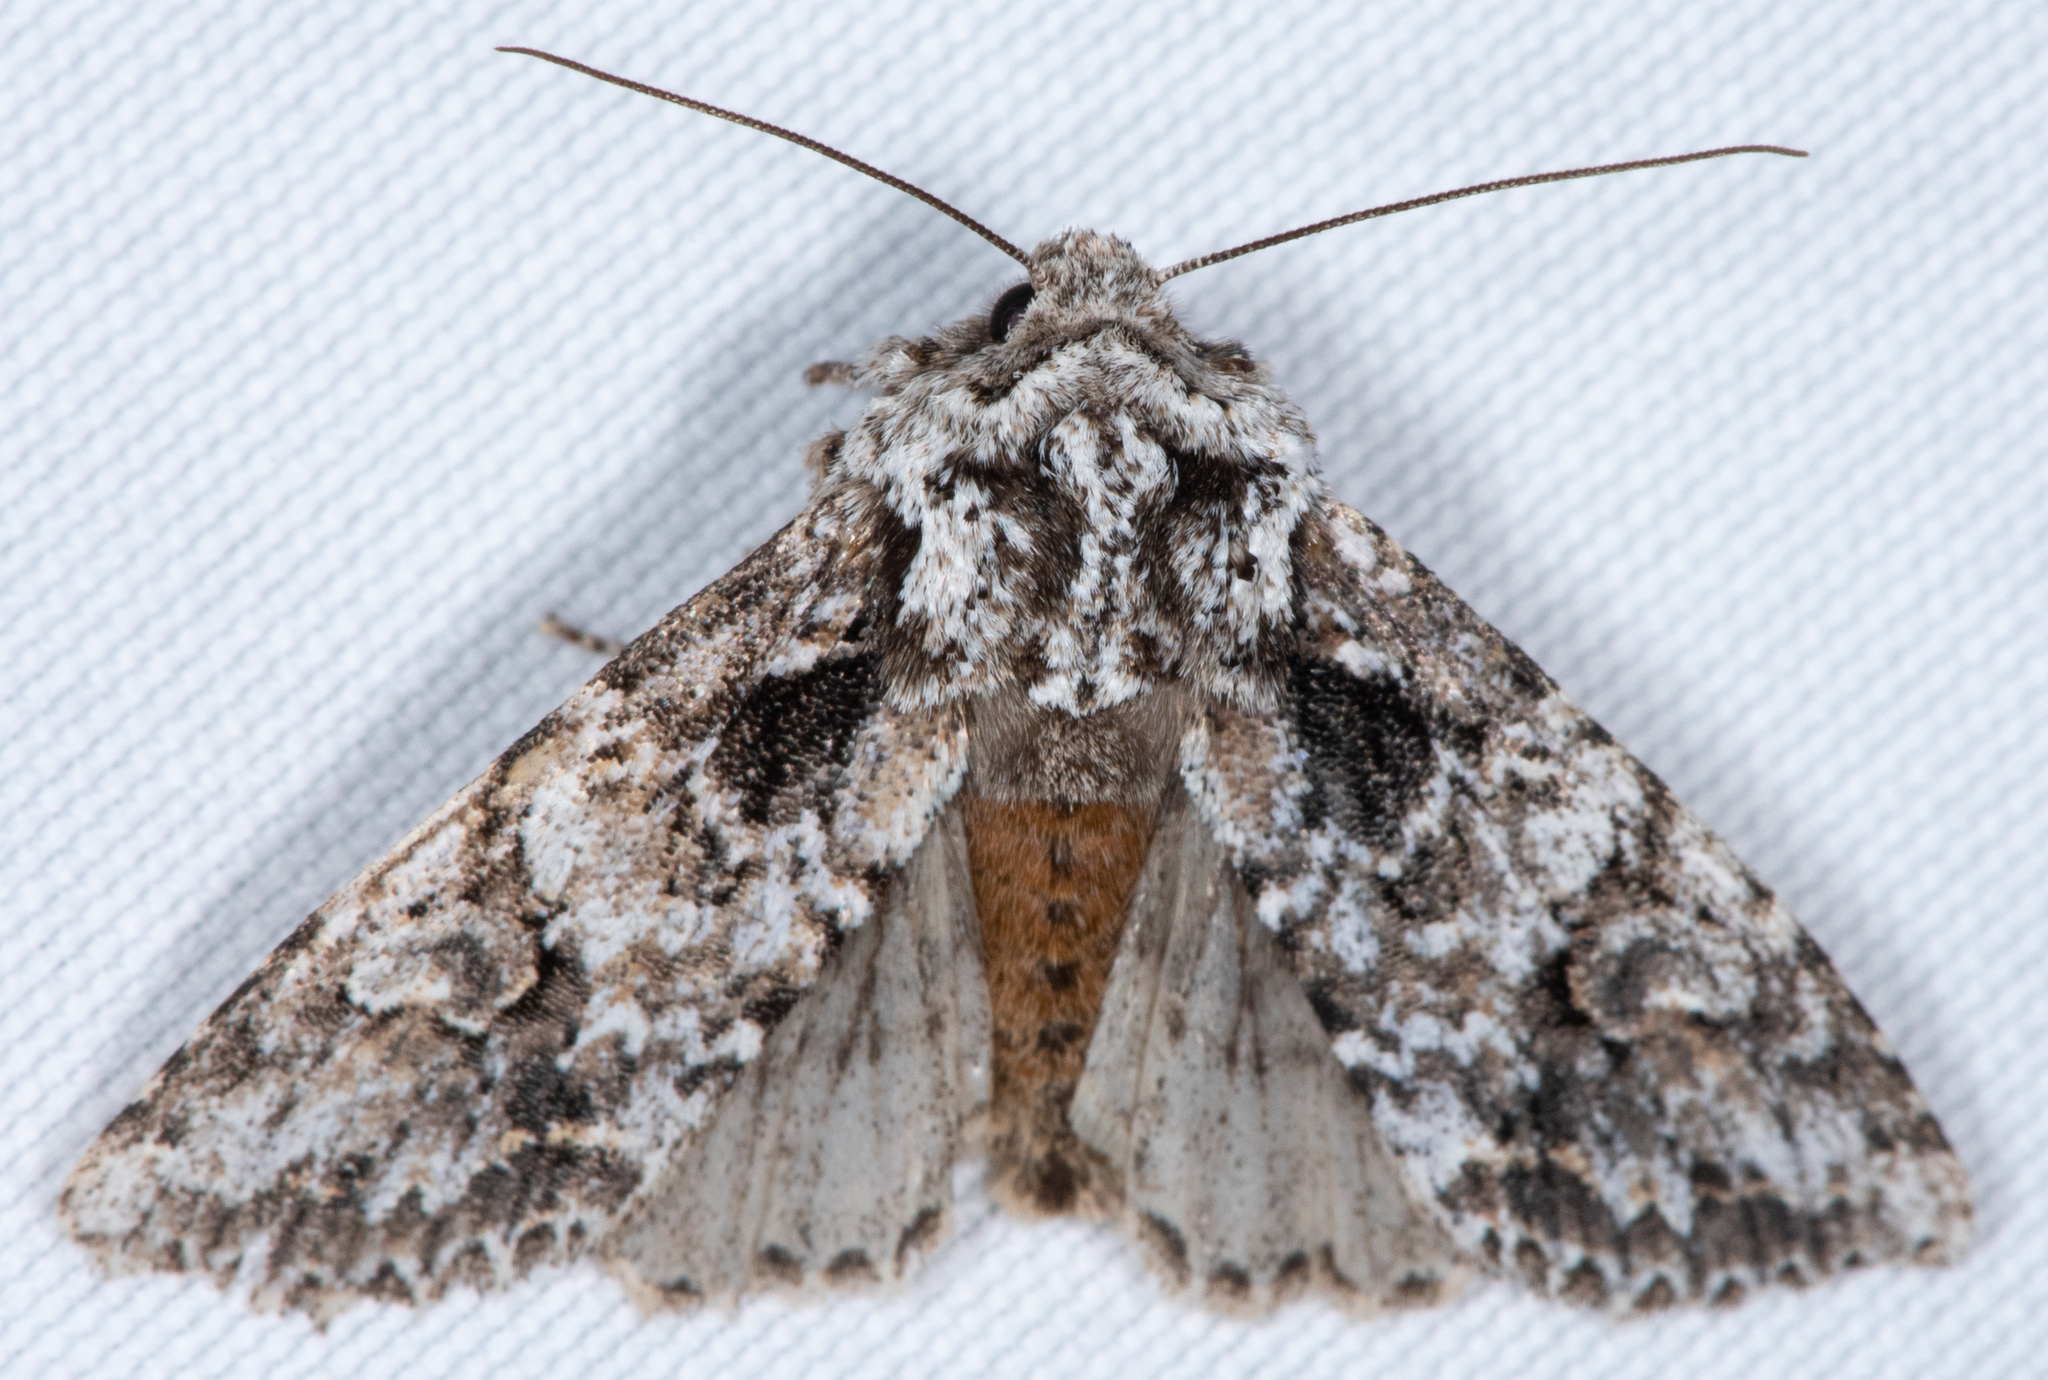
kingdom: Animalia
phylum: Arthropoda
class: Insecta
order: Lepidoptera
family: Noctuidae
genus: Egira
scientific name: Egira februalis
